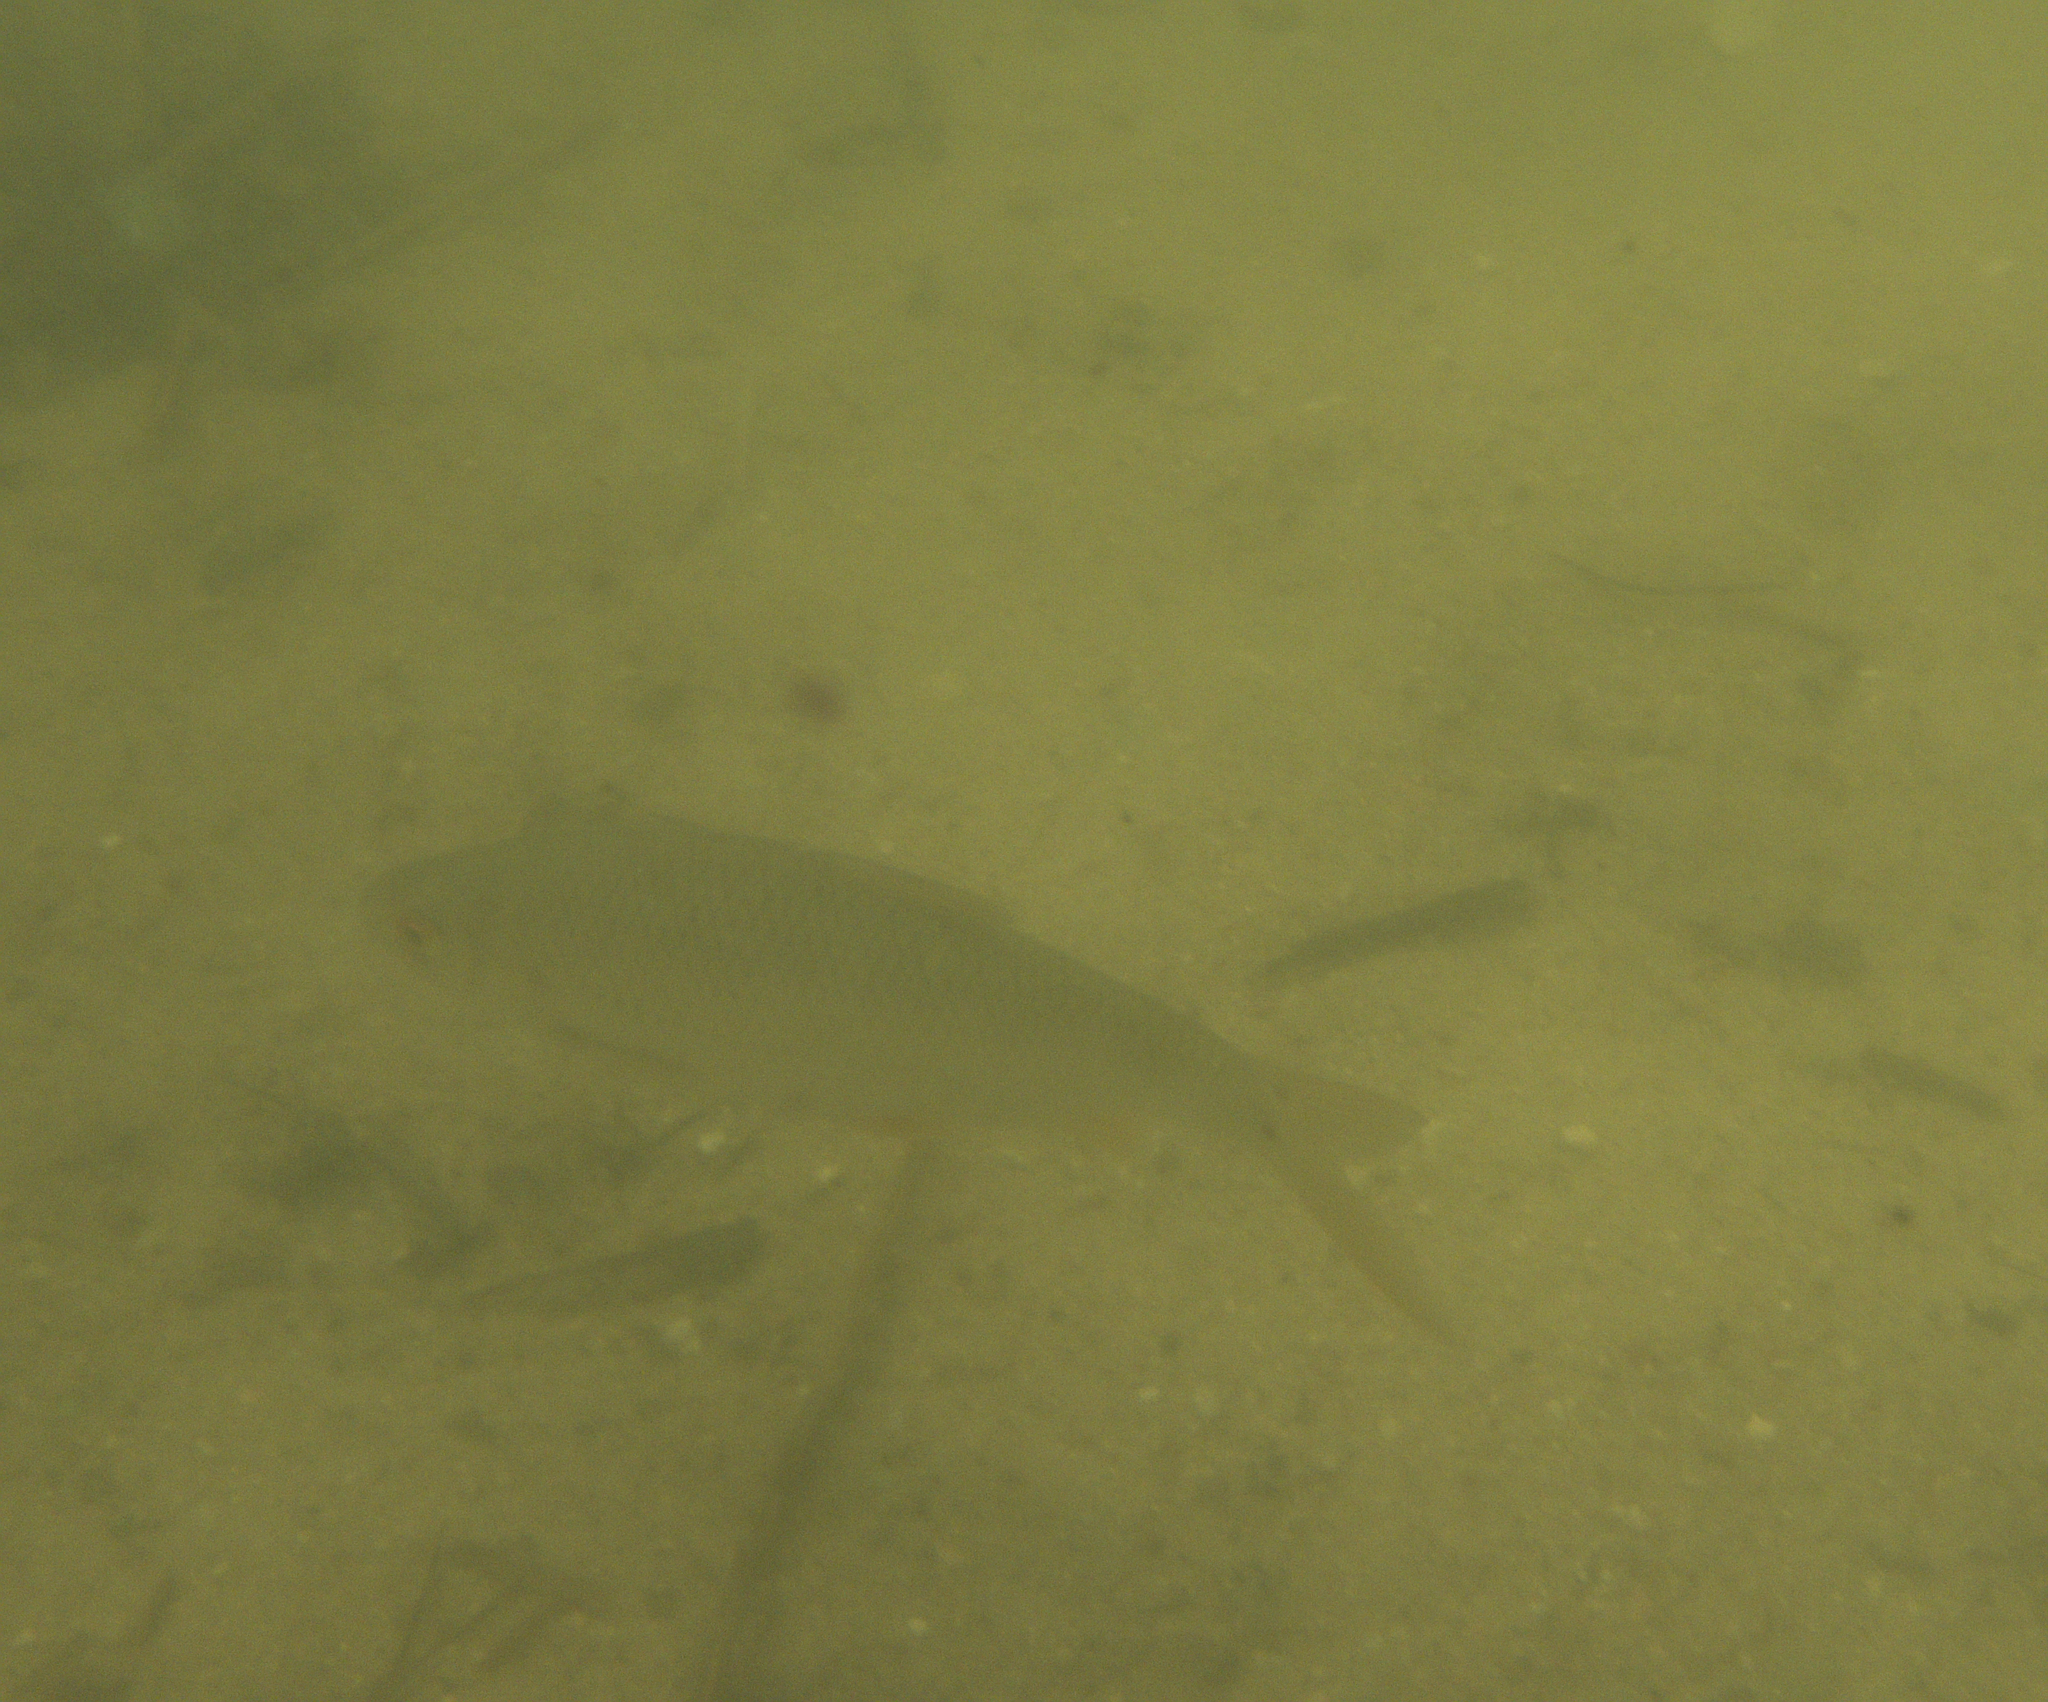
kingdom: Animalia
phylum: Chordata
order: Cypriniformes
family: Cyprinidae
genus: Rutilus
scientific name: Rutilus rutilus
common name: Roach
